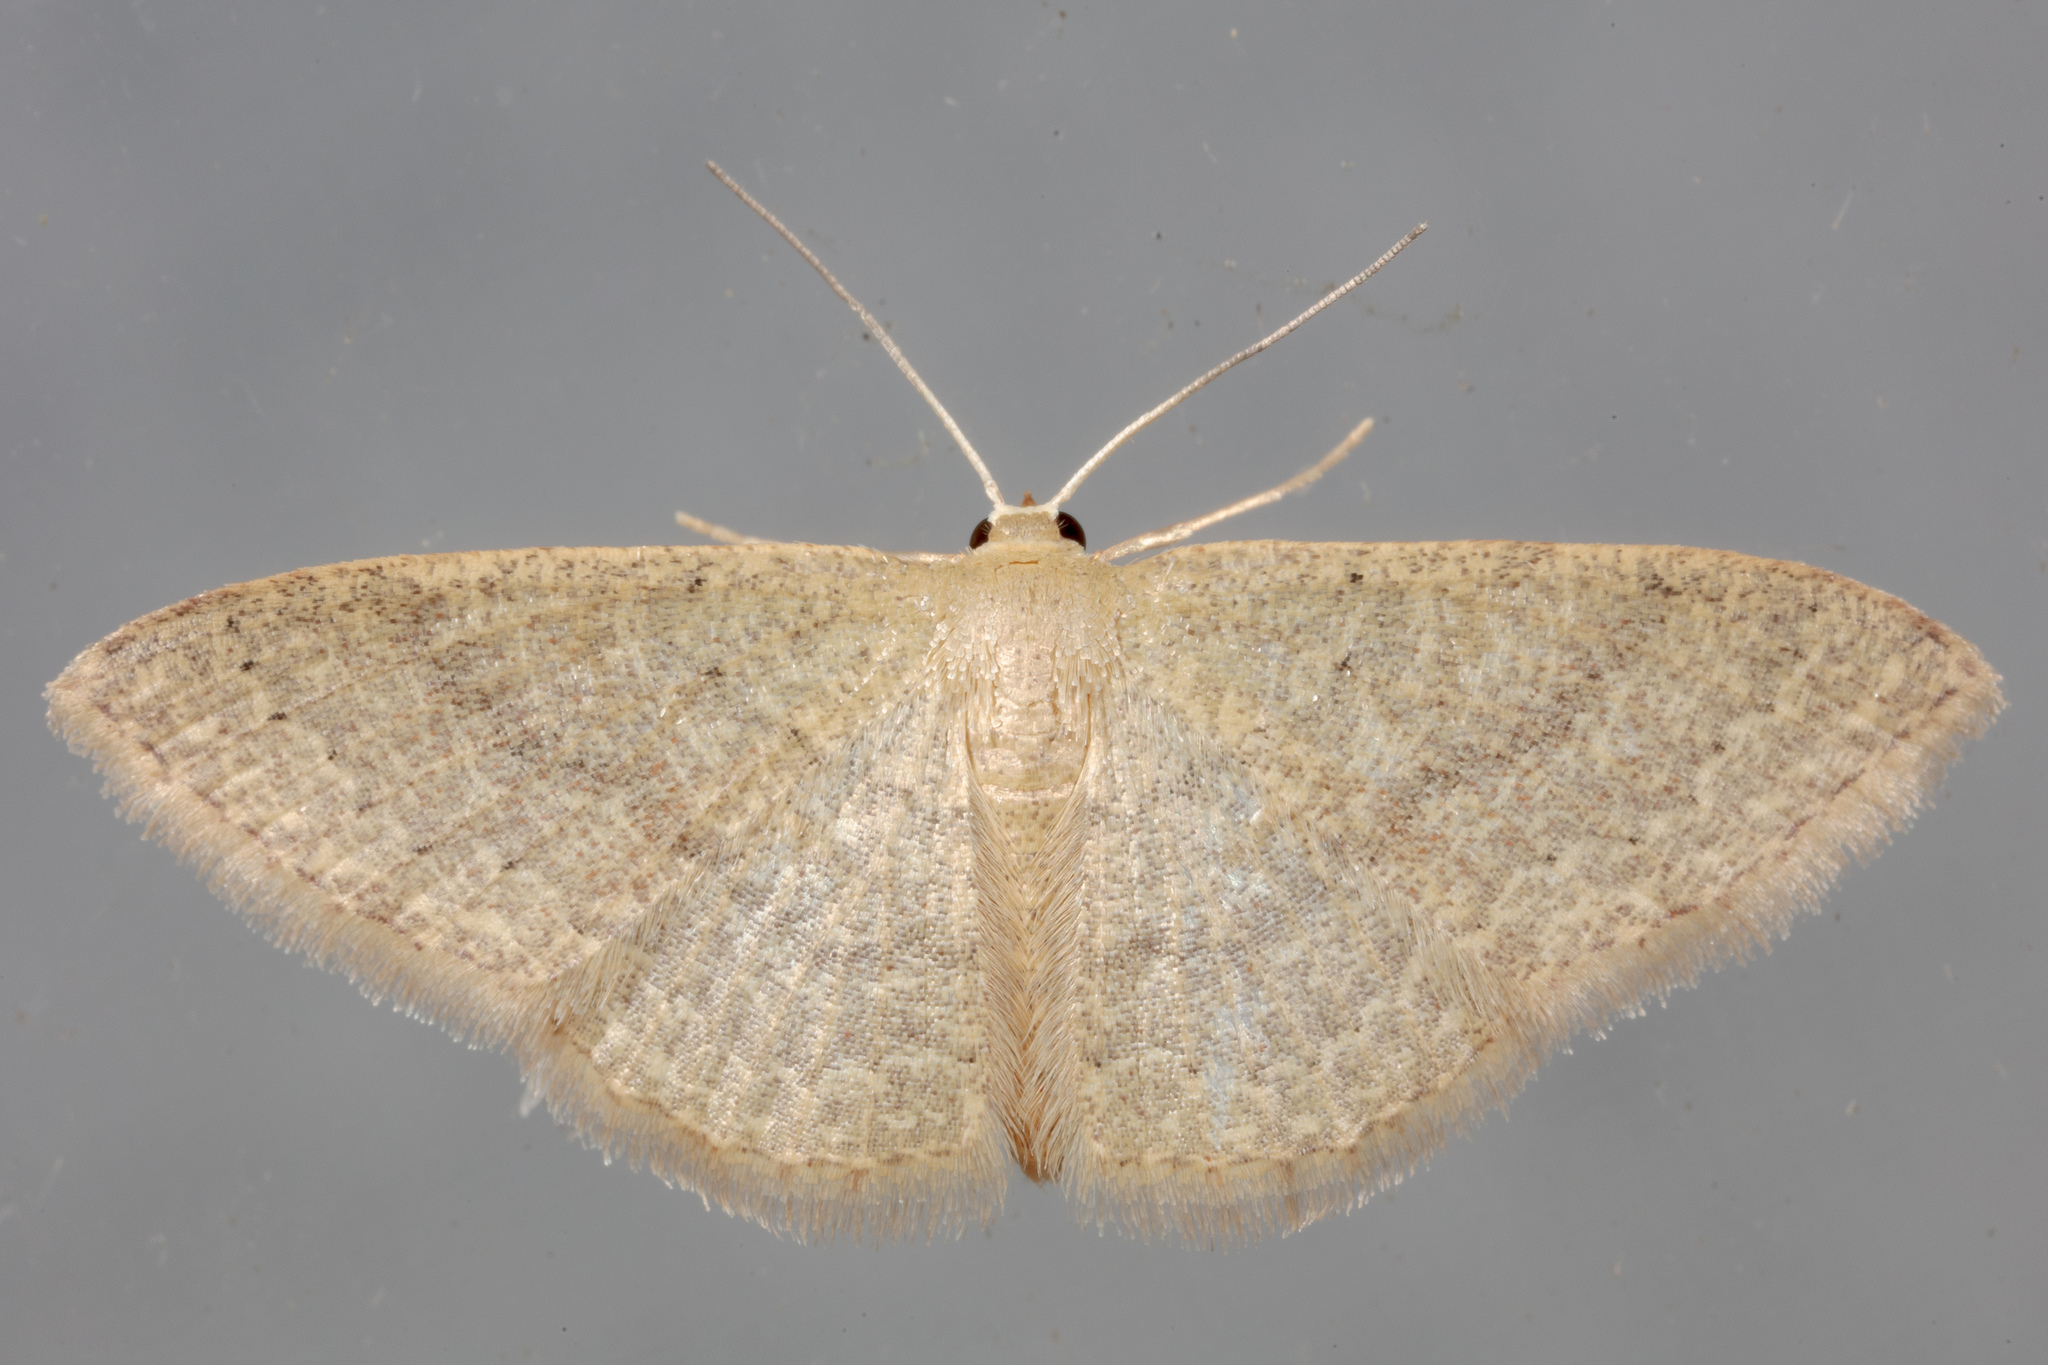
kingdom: Animalia
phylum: Arthropoda
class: Insecta
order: Lepidoptera
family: Geometridae
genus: Pleuroprucha
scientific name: Pleuroprucha insulsaria
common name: Common tan wave
